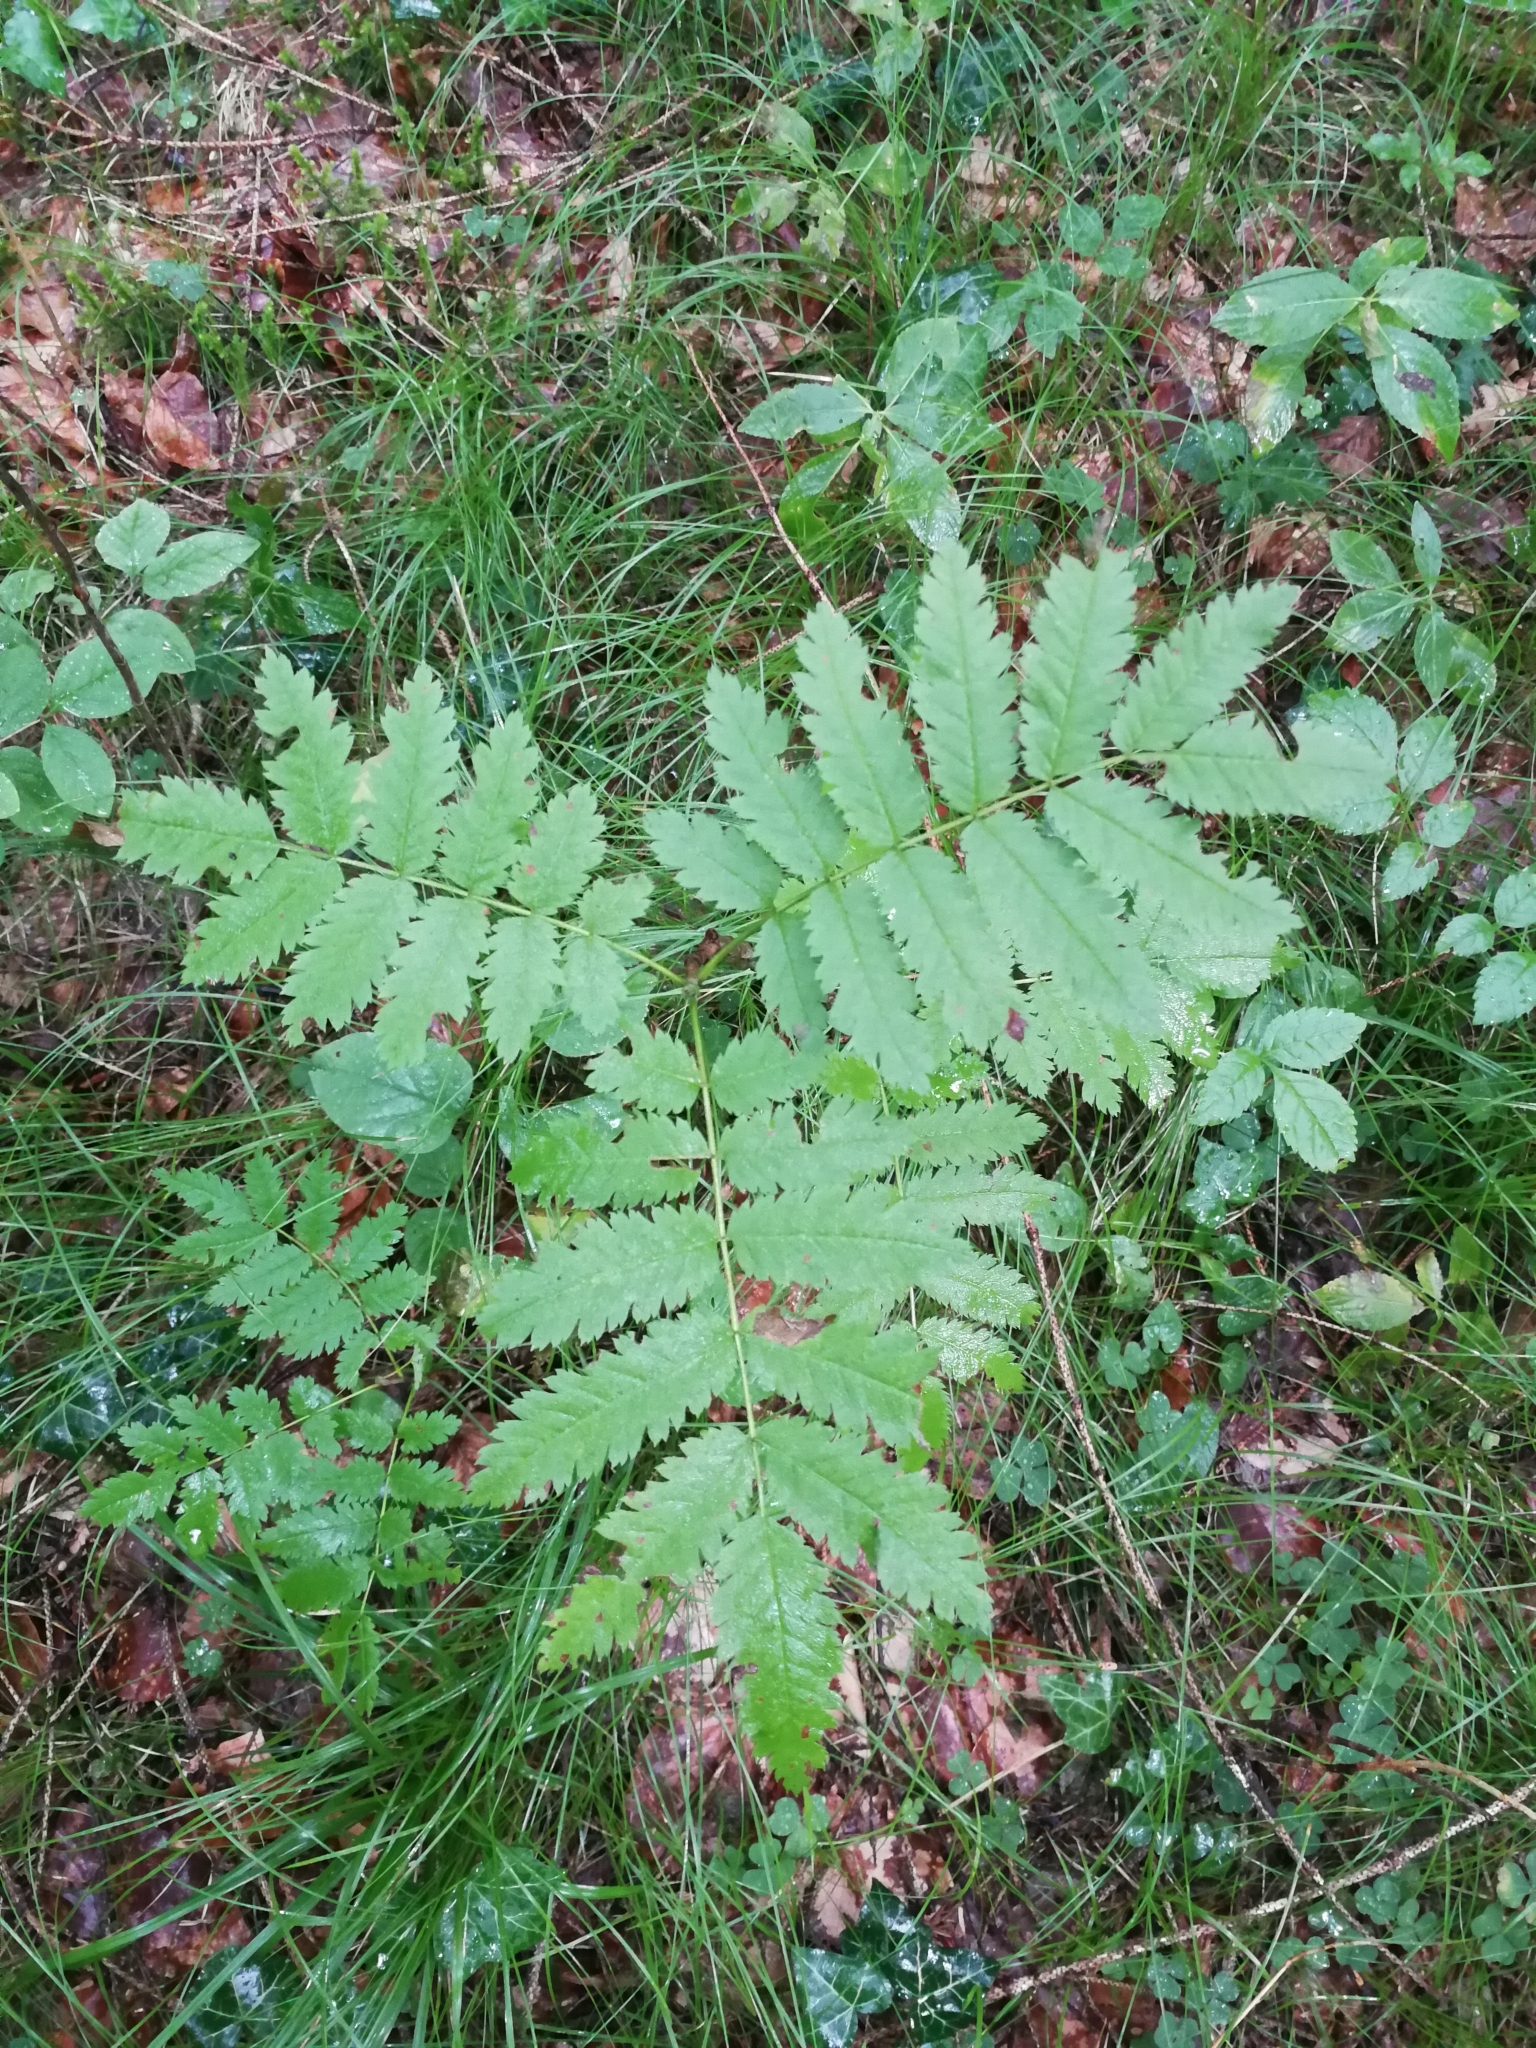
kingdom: Plantae
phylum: Tracheophyta
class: Magnoliopsida
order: Rosales
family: Rosaceae
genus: Sorbus
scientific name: Sorbus aucuparia
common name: Rowan
